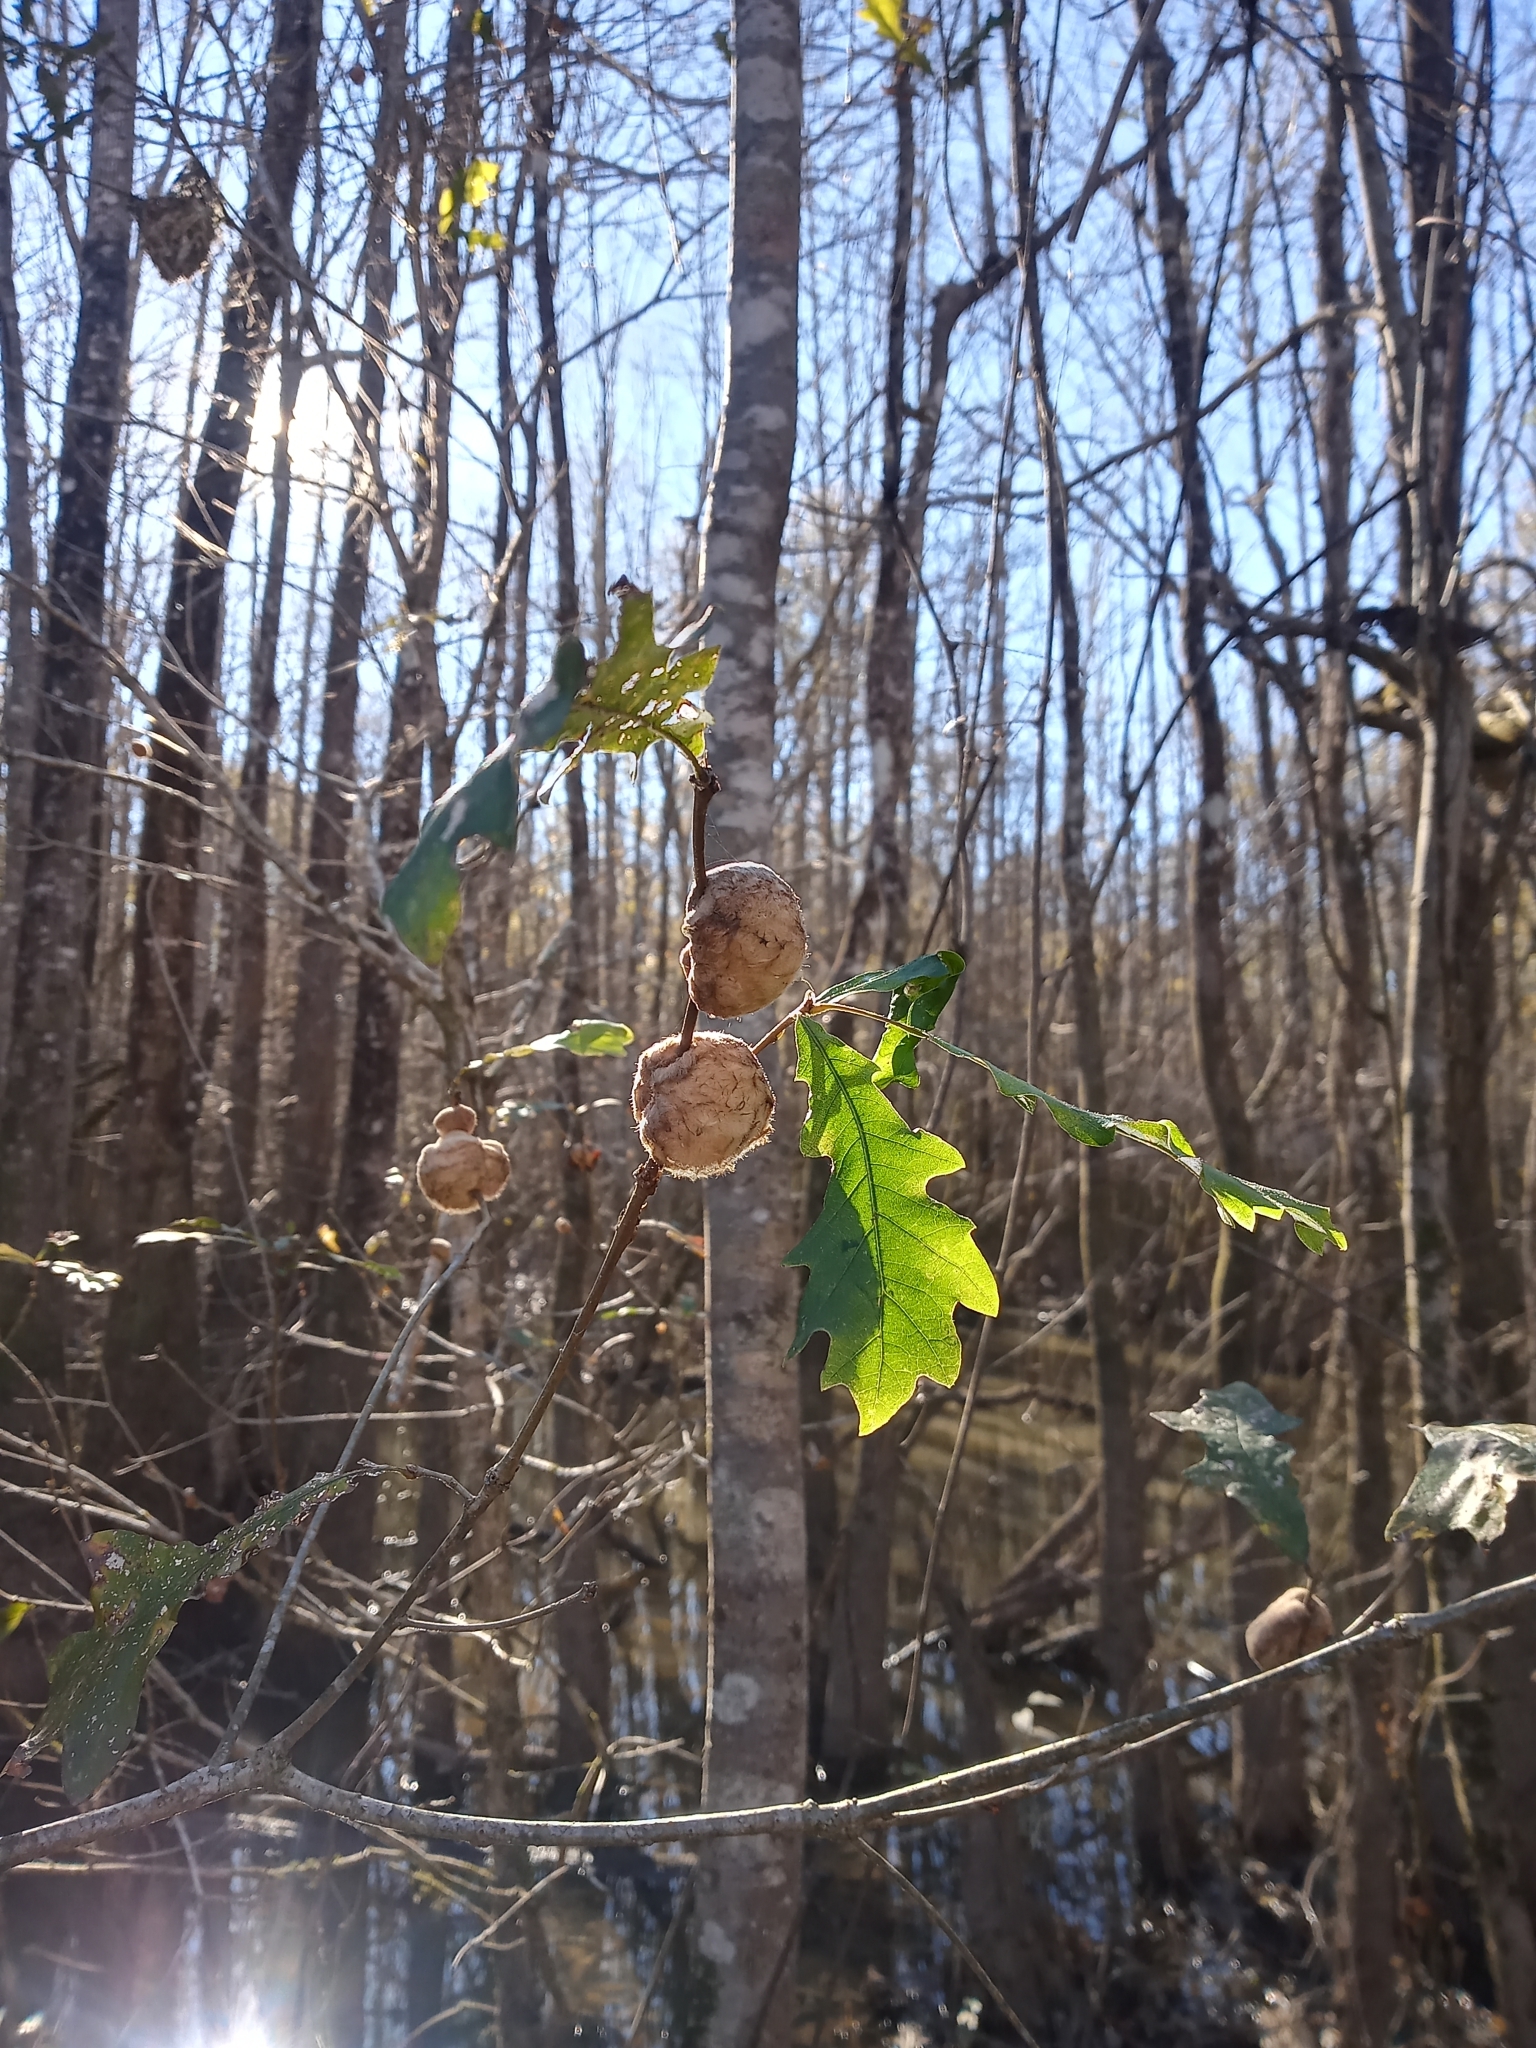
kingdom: Animalia
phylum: Arthropoda
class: Insecta
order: Hymenoptera
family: Cynipidae
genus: Striatoandricus
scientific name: Striatoandricus aciculatus
